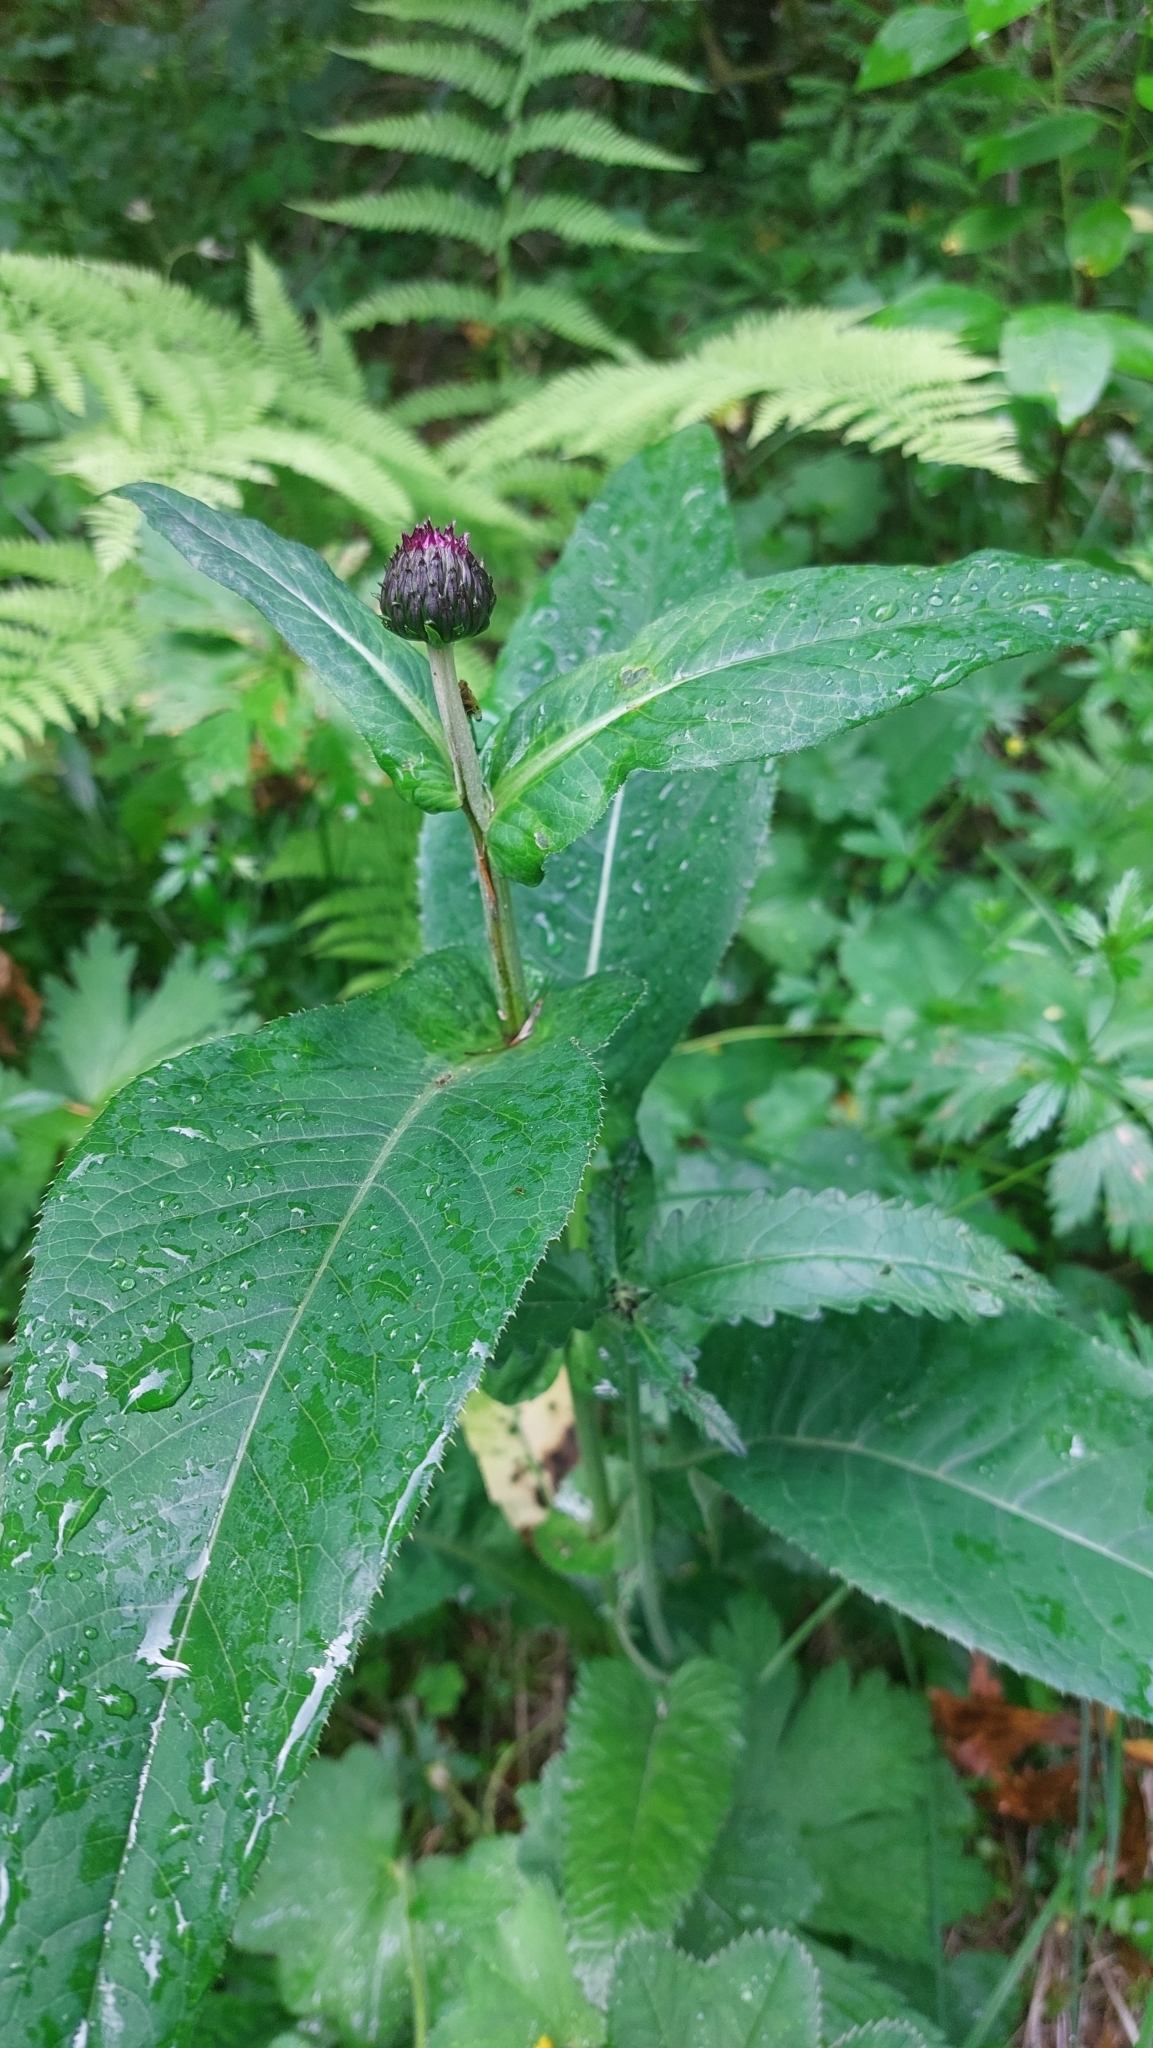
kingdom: Plantae
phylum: Tracheophyta
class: Magnoliopsida
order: Asterales
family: Asteraceae
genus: Cirsium
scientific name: Cirsium heterophyllum
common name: Melancholy thistle
